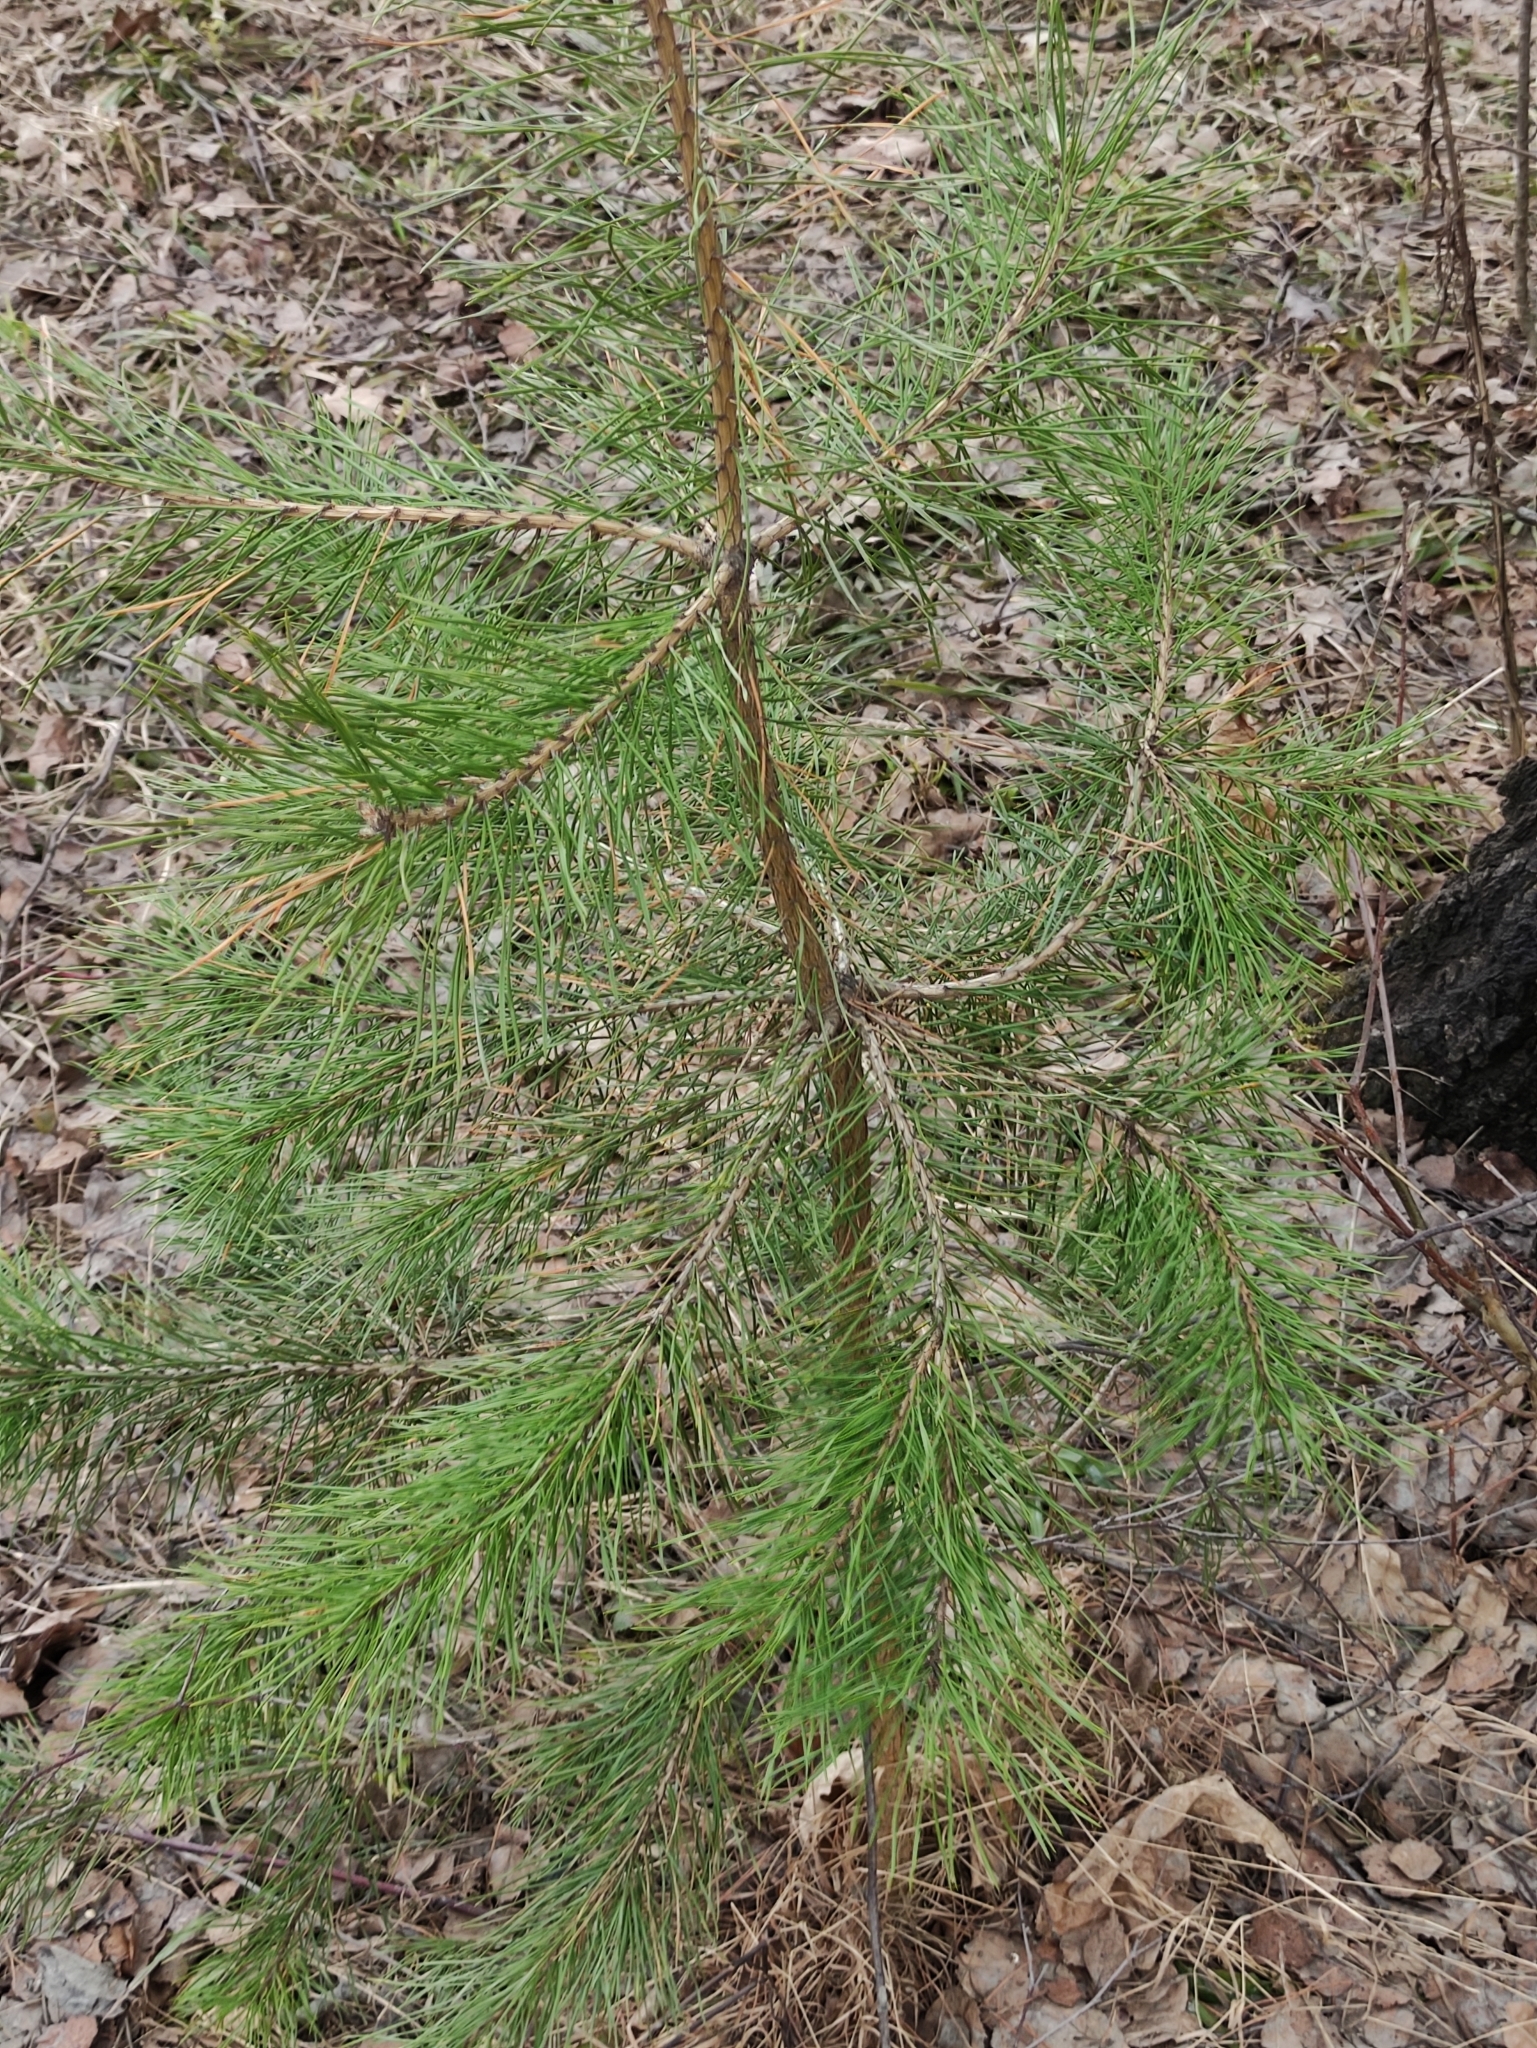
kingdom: Plantae
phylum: Tracheophyta
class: Pinopsida
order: Pinales
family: Pinaceae
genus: Pinus
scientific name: Pinus sylvestris
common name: Scots pine
